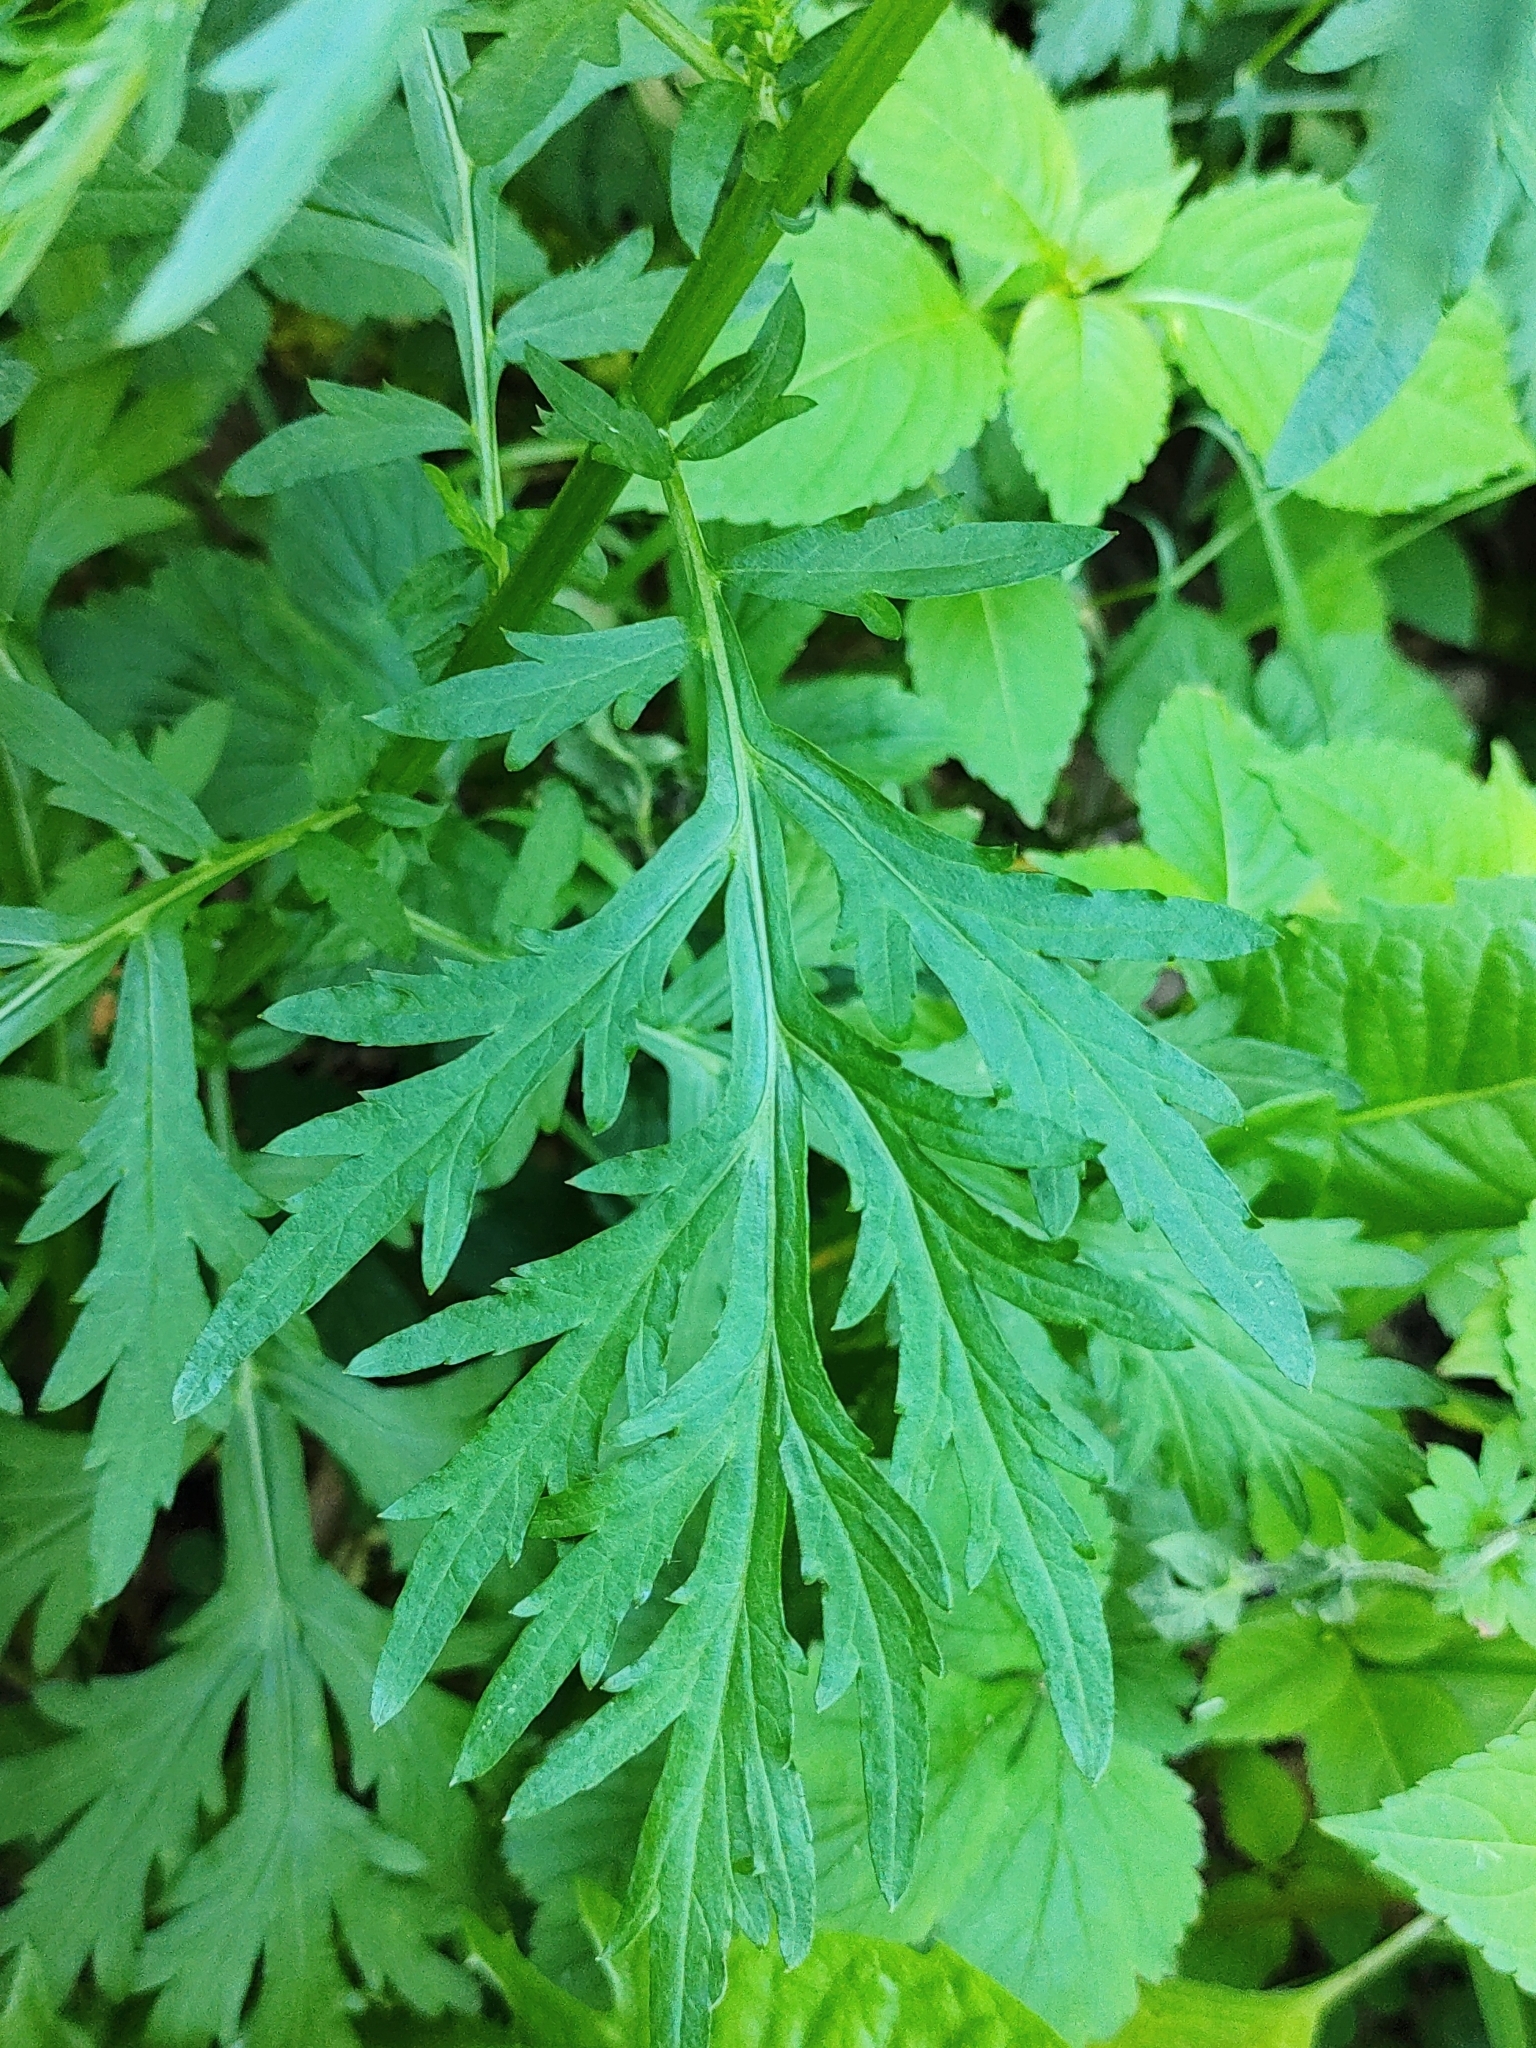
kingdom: Plantae
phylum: Tracheophyta
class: Magnoliopsida
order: Asterales
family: Asteraceae
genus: Artemisia
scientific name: Artemisia vulgaris
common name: Mugwort
